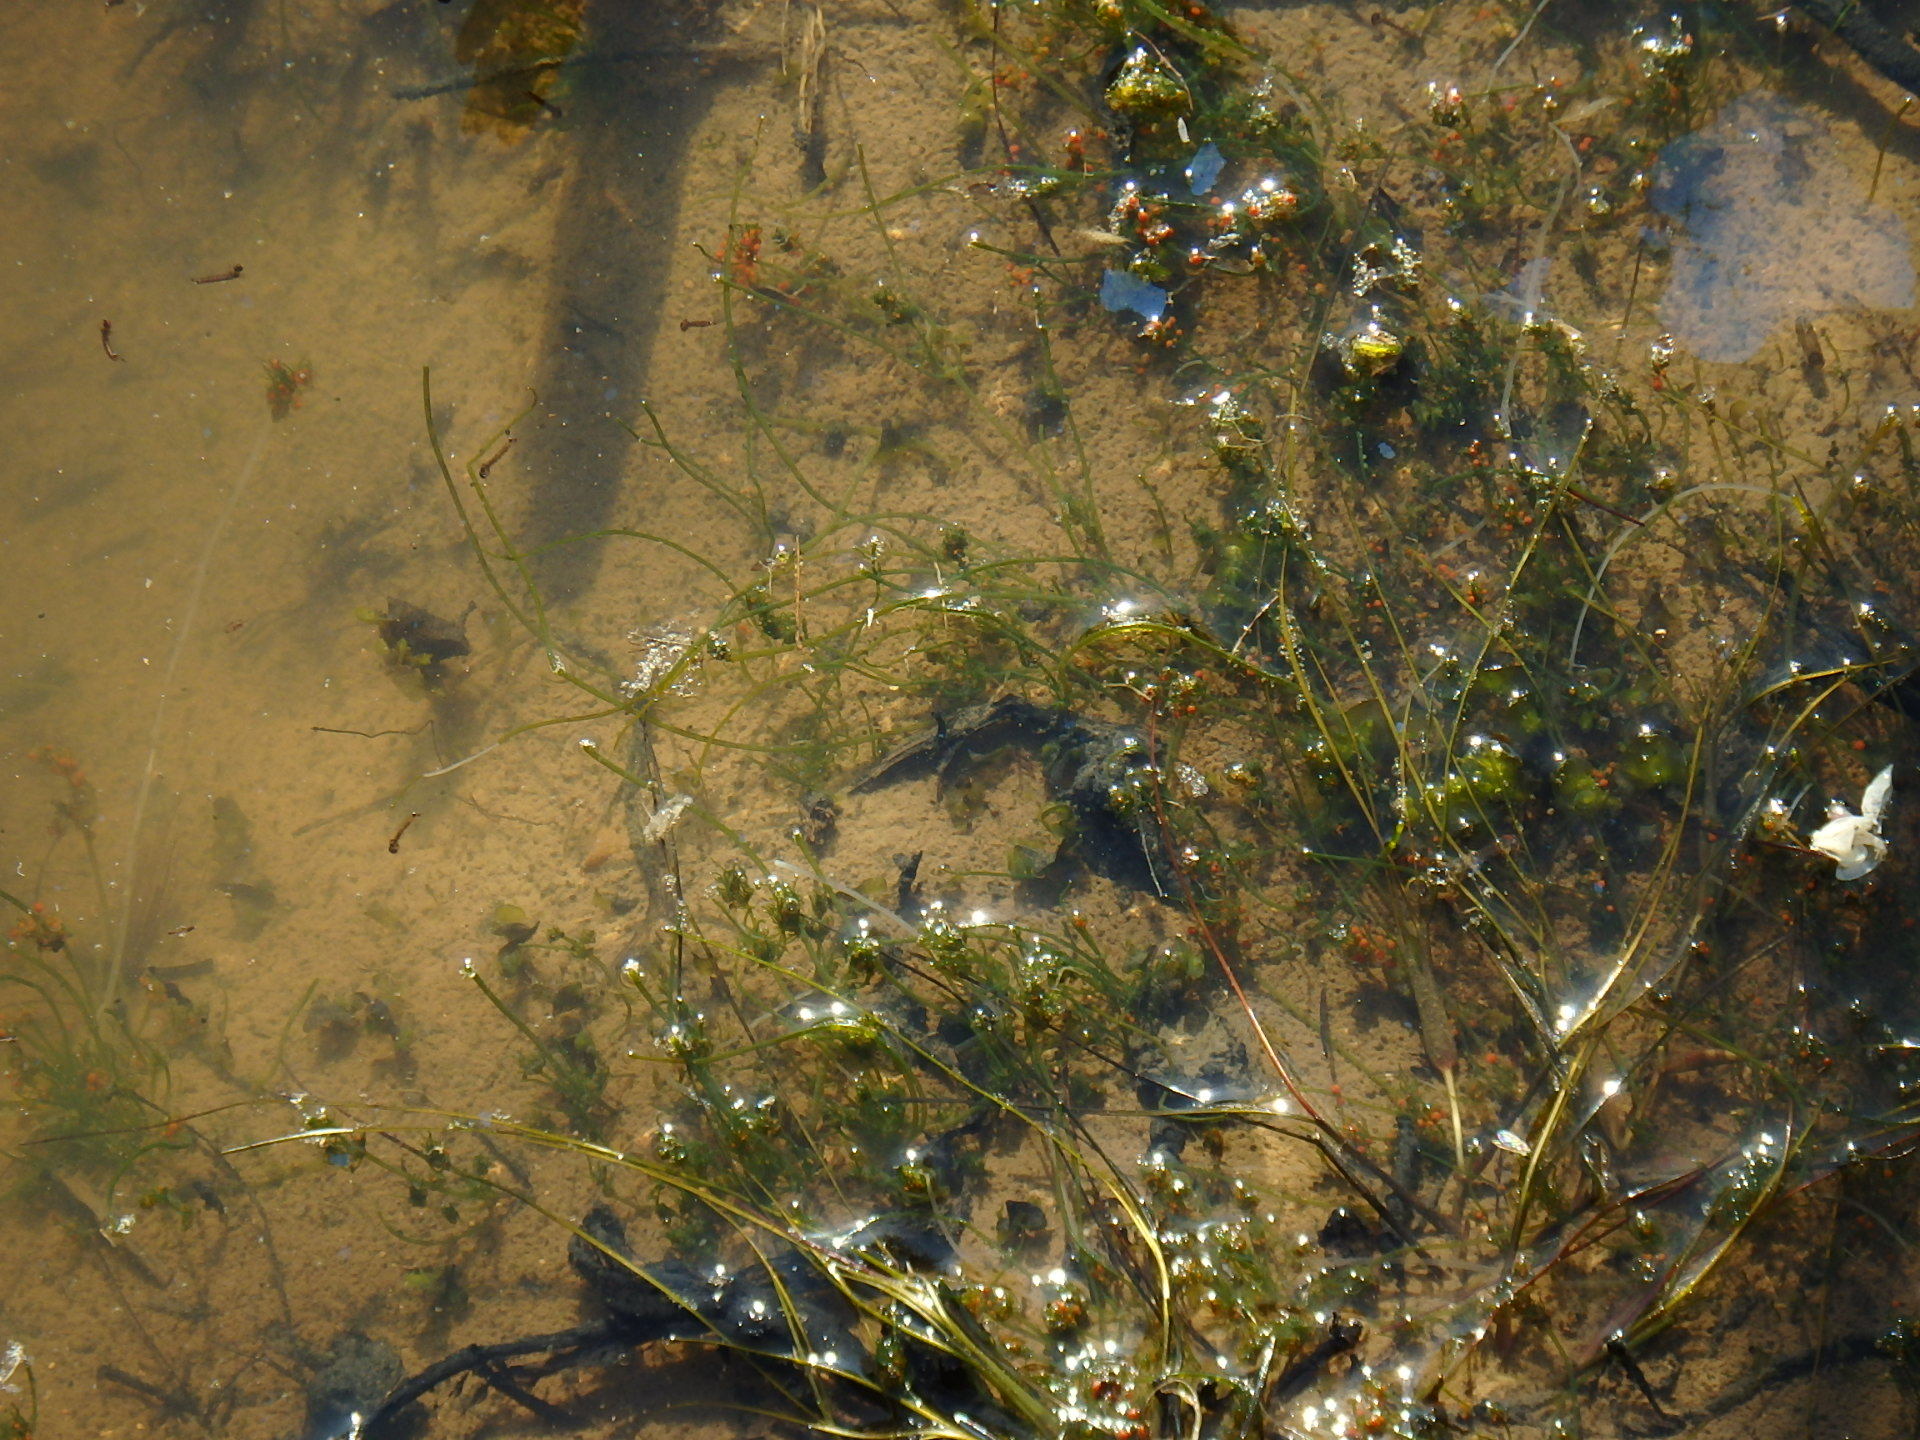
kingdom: Plantae
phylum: Charophyta
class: Charophyceae
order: Charales
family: Characeae
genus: Tolypella
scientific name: Tolypella hispanica
